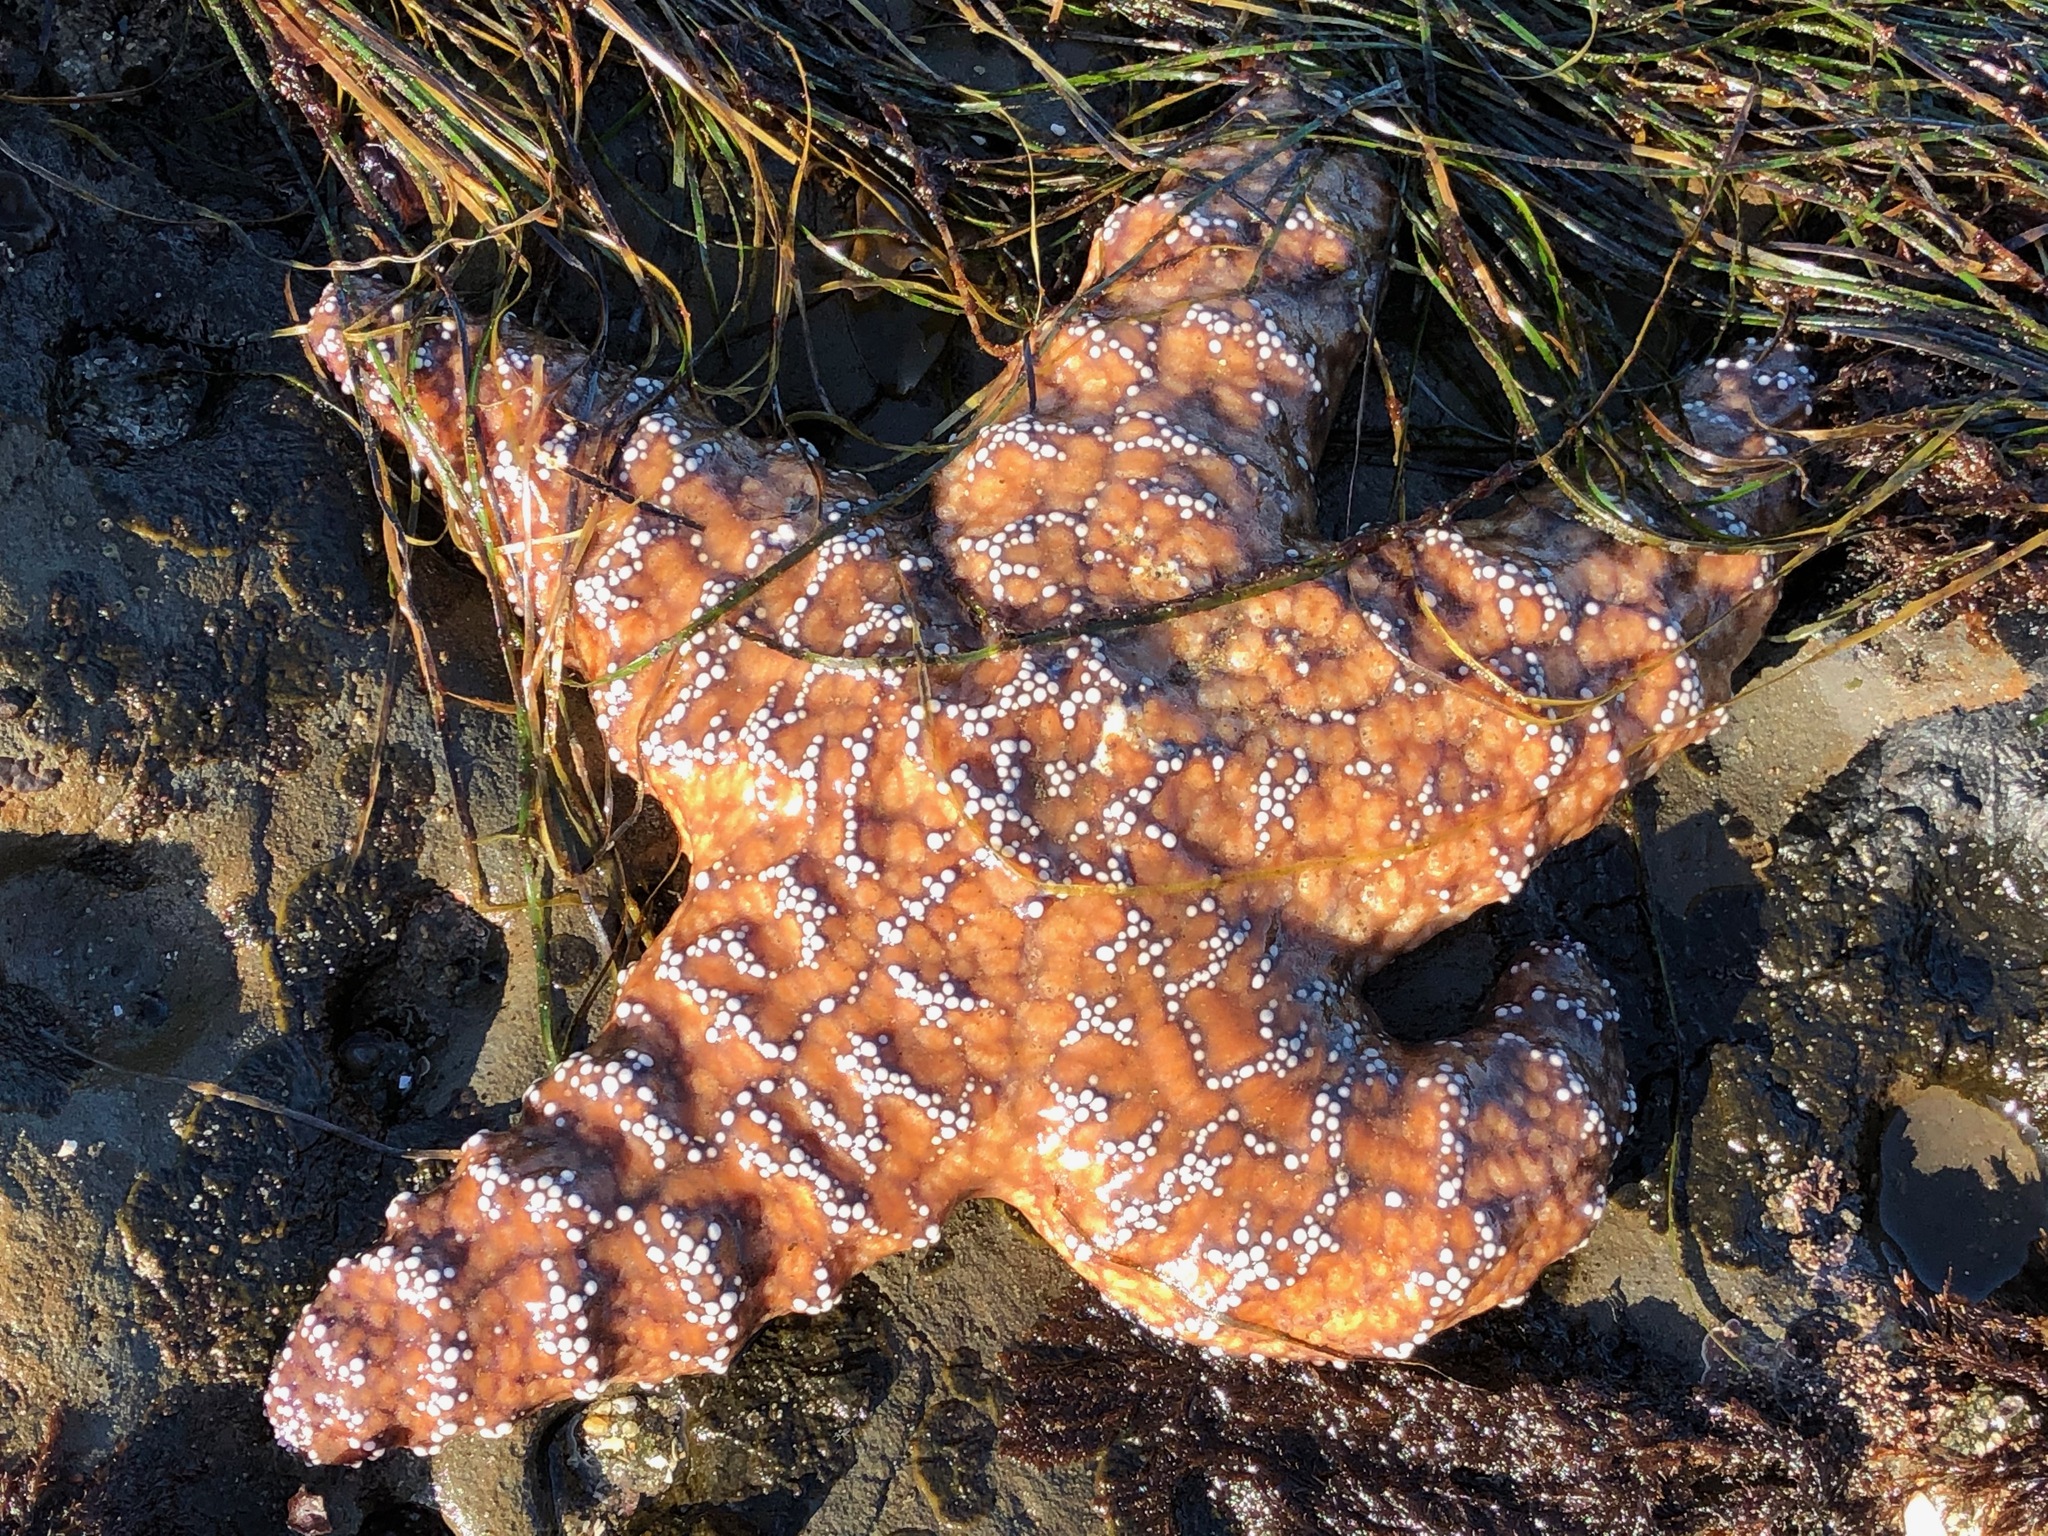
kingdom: Animalia
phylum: Echinodermata
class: Asteroidea
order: Forcipulatida
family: Asteriidae
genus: Pisaster
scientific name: Pisaster ochraceus
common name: Ochre stars
